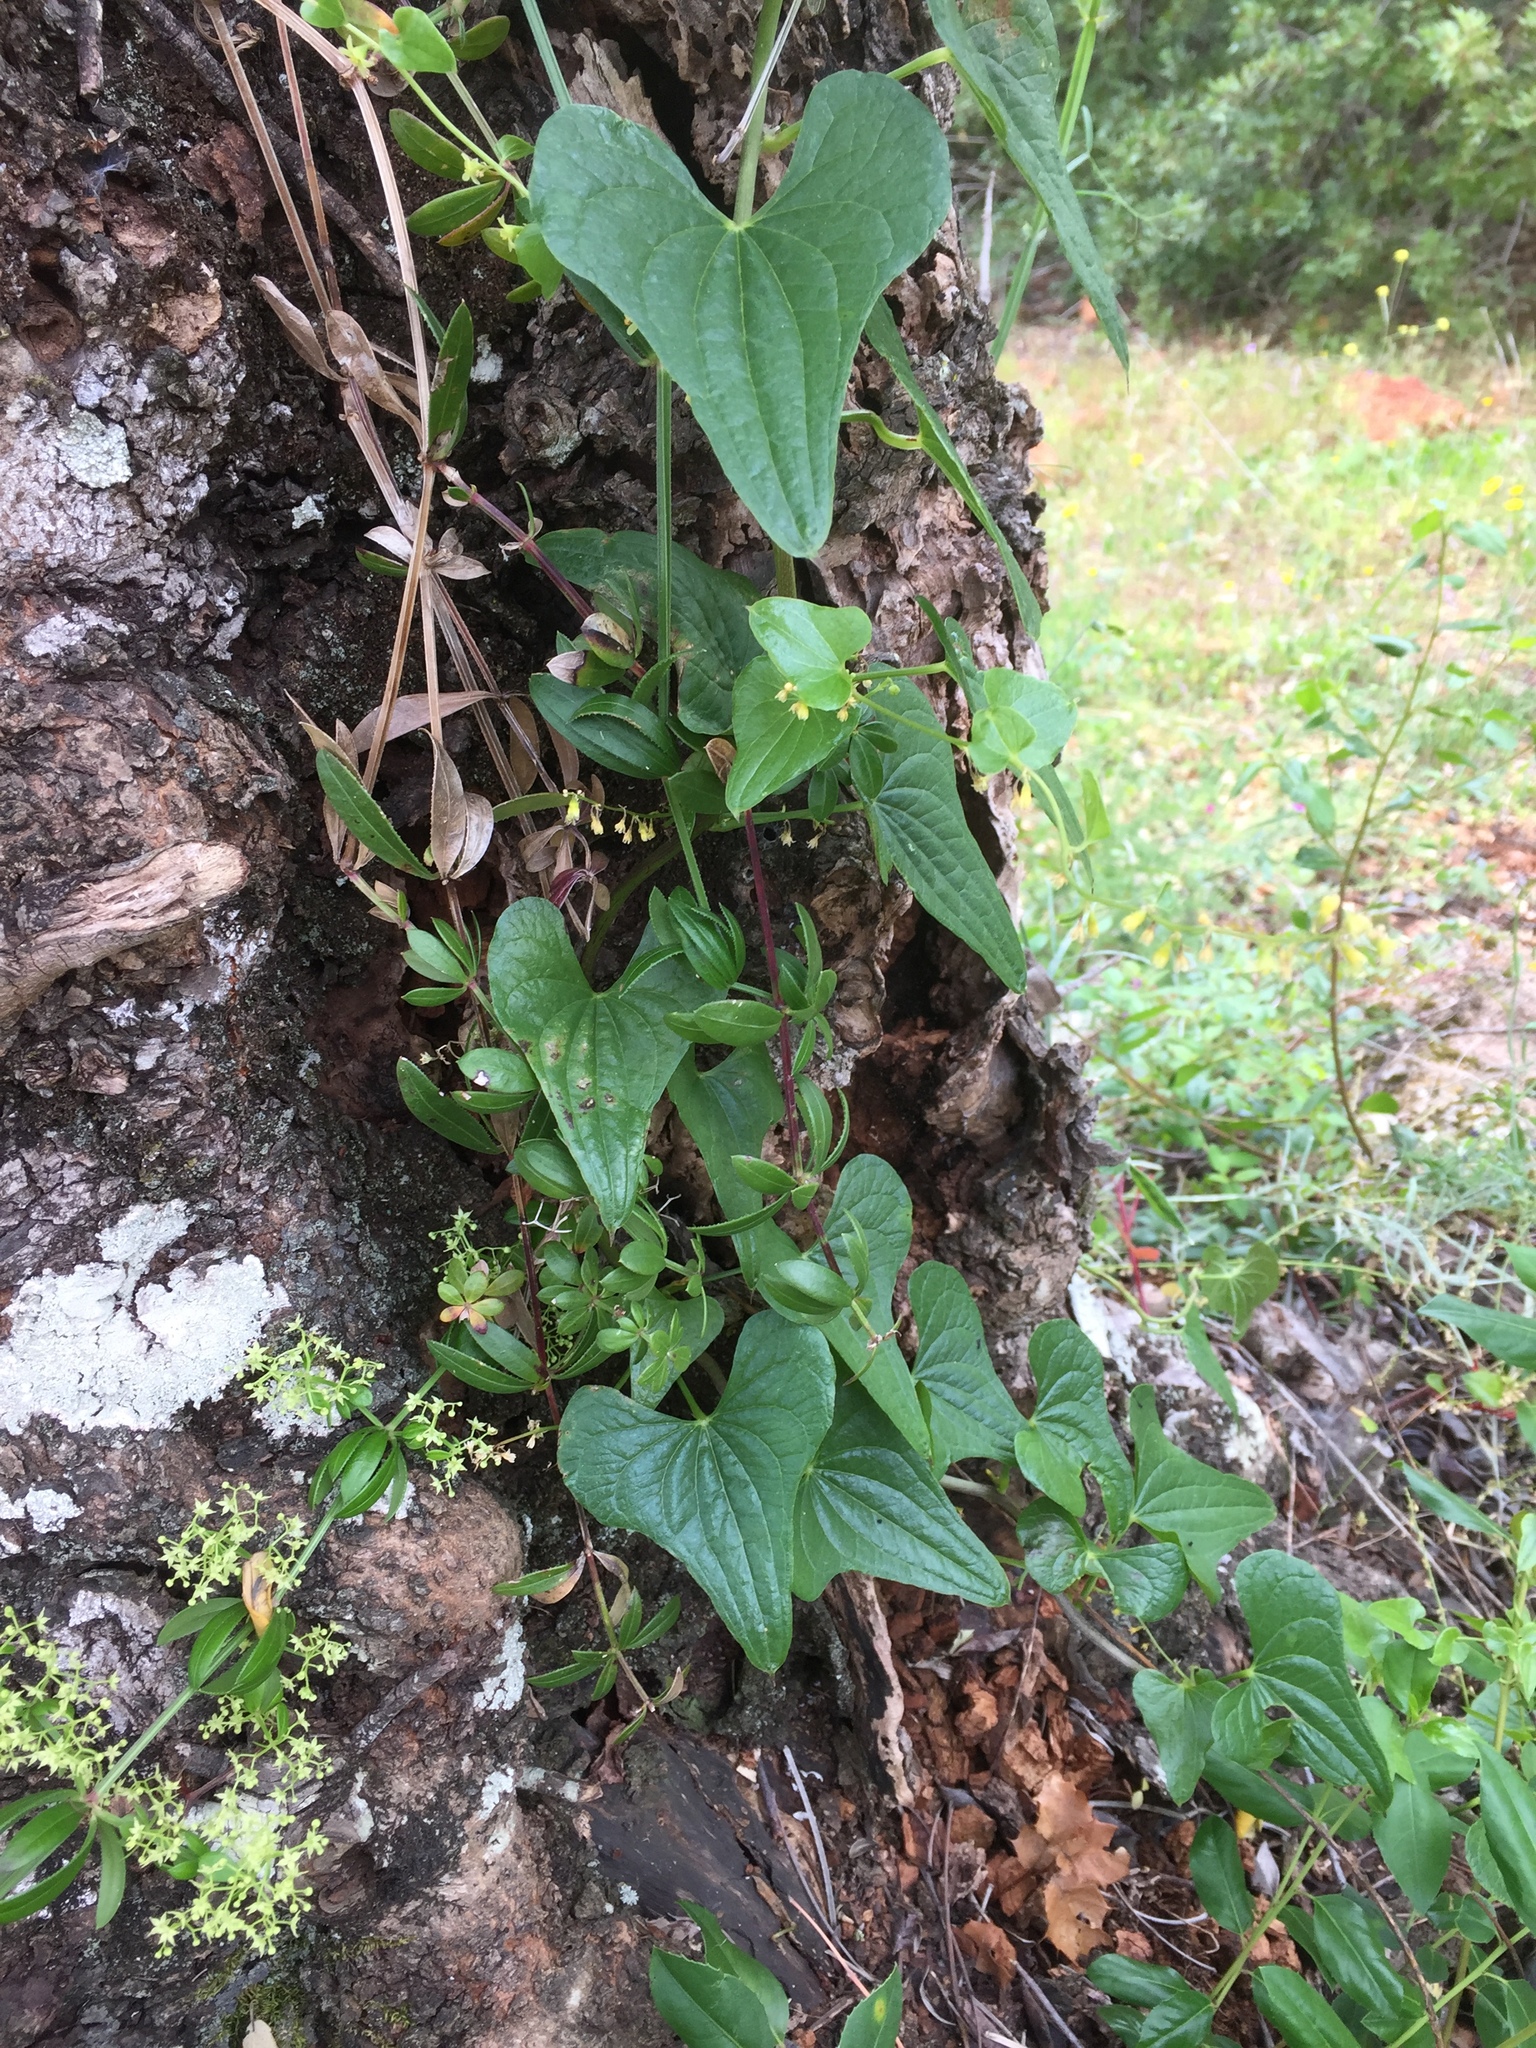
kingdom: Plantae
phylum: Tracheophyta
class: Liliopsida
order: Dioscoreales
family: Dioscoreaceae
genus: Dioscorea
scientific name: Dioscorea communis
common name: Black-bindweed
